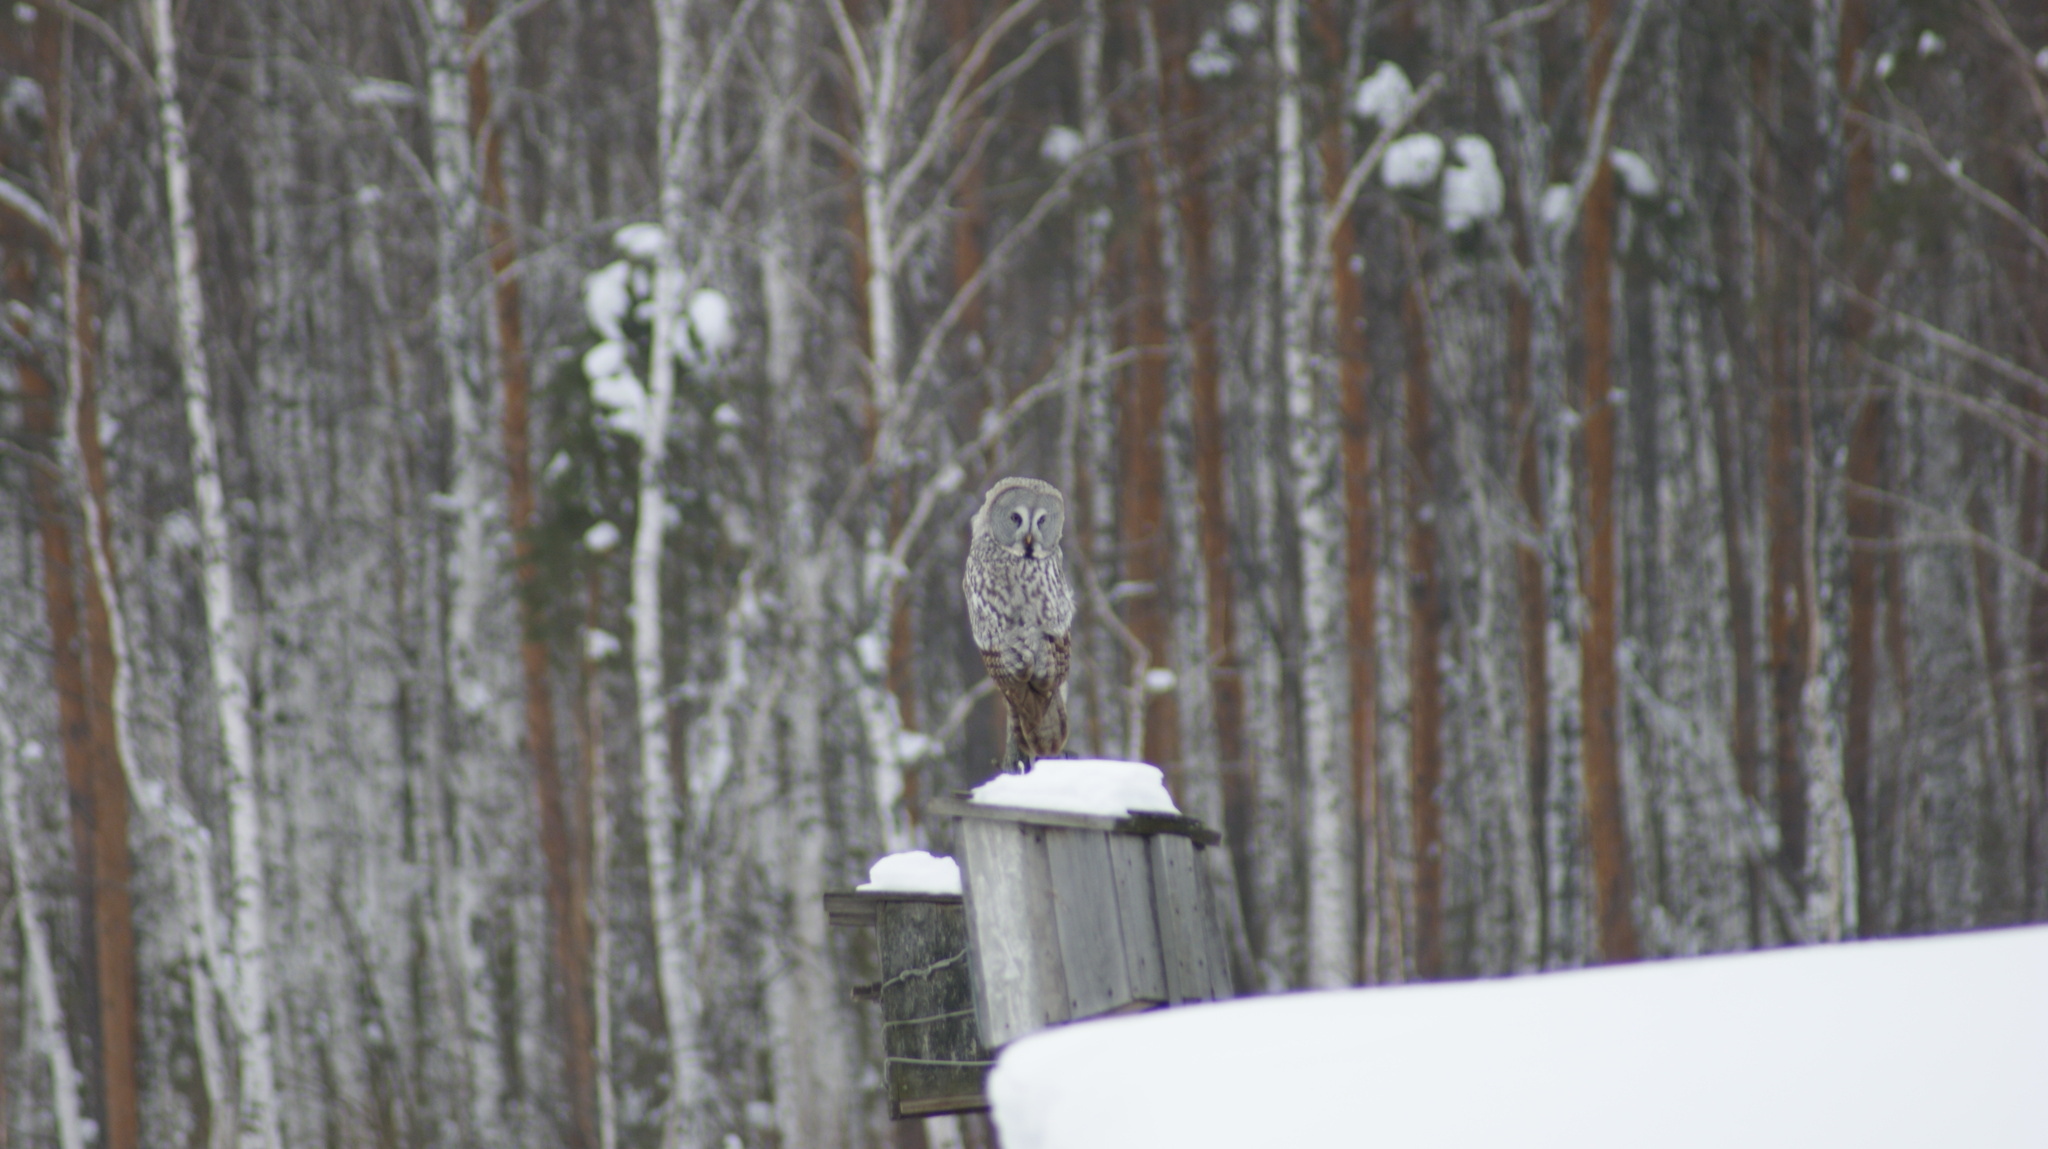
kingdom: Animalia
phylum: Chordata
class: Aves
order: Strigiformes
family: Strigidae
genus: Strix
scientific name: Strix nebulosa
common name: Great grey owl
